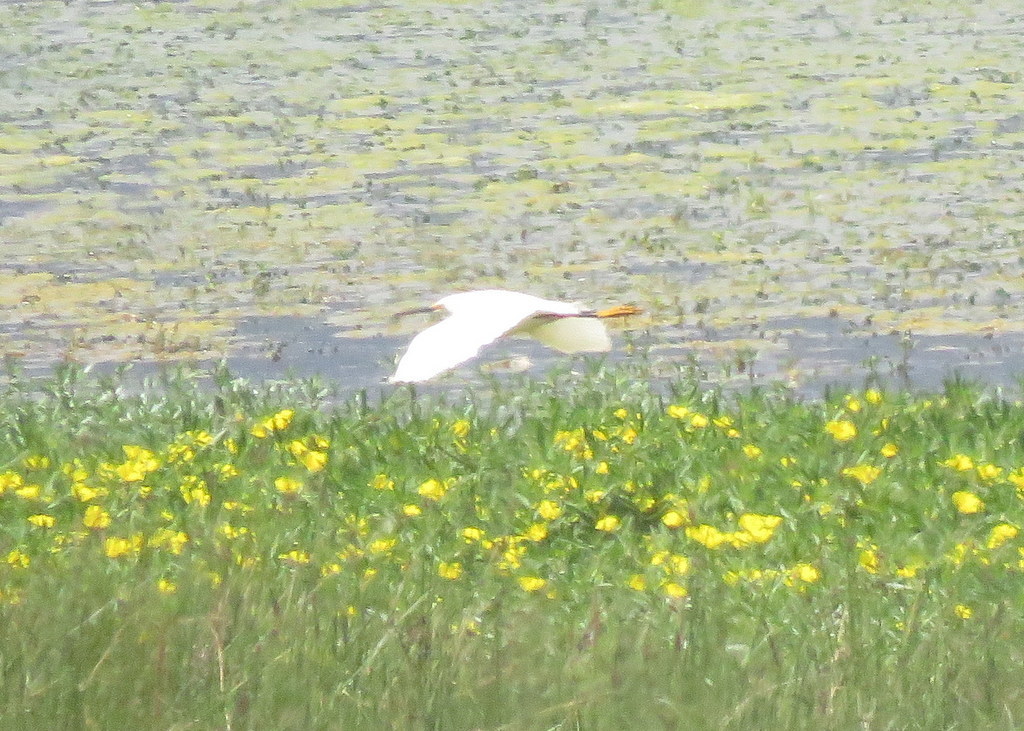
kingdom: Animalia
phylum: Chordata
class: Aves
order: Pelecaniformes
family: Ardeidae
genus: Egretta
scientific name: Egretta thula
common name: Snowy egret
